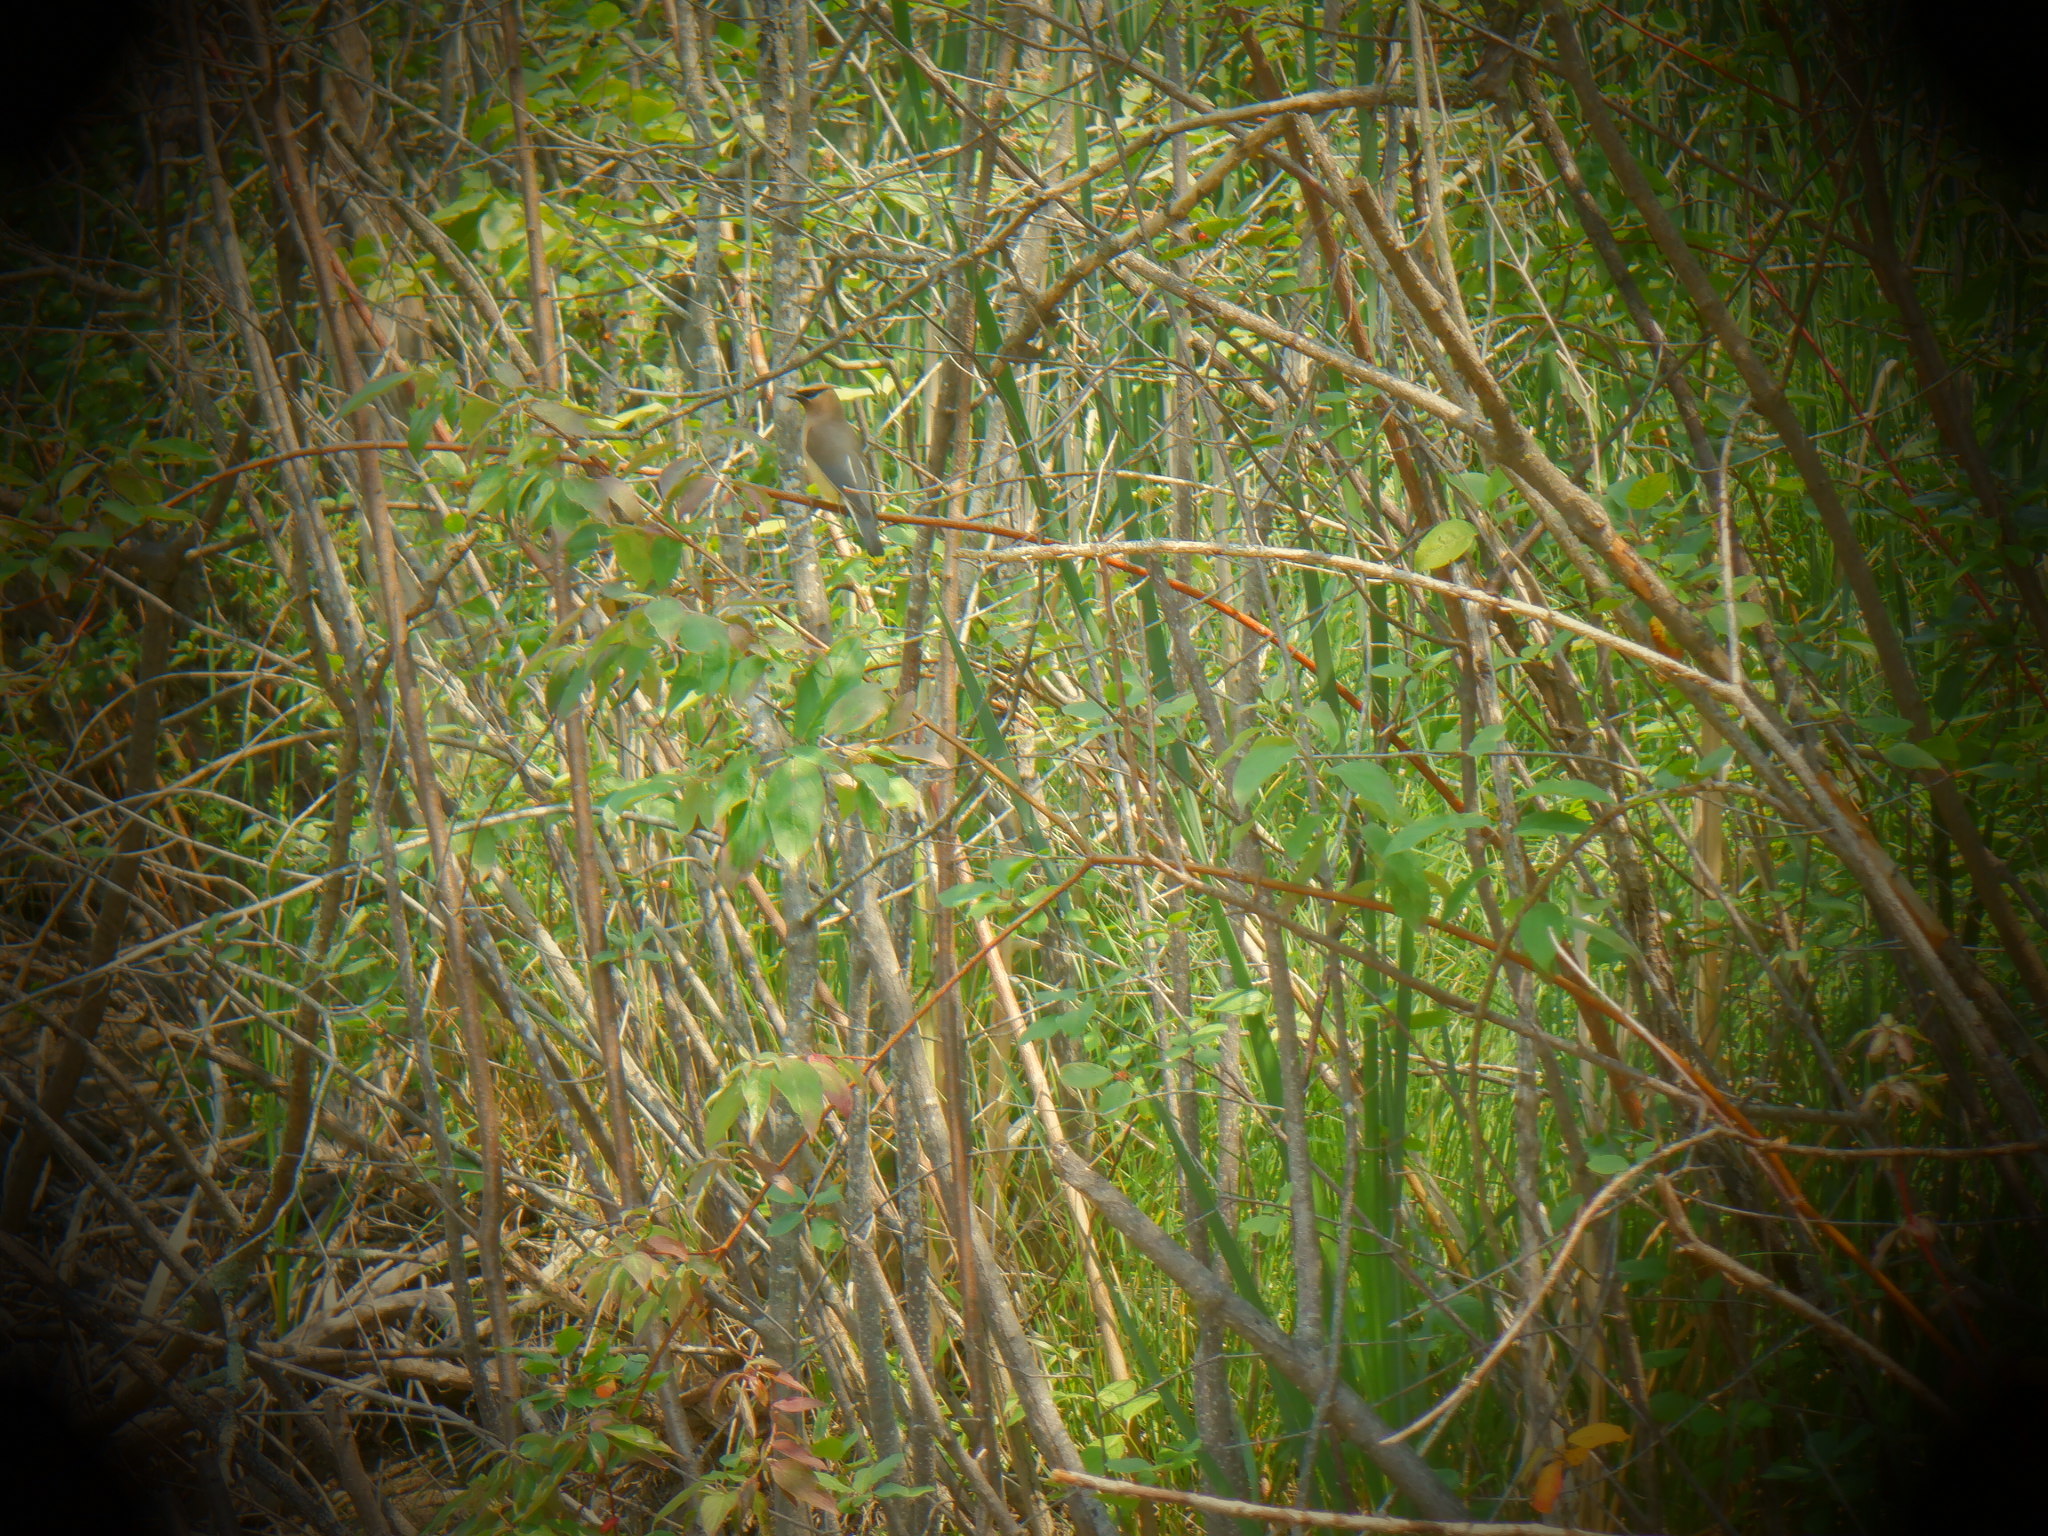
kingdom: Animalia
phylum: Chordata
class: Aves
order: Passeriformes
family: Bombycillidae
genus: Bombycilla
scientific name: Bombycilla cedrorum
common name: Cedar waxwing
